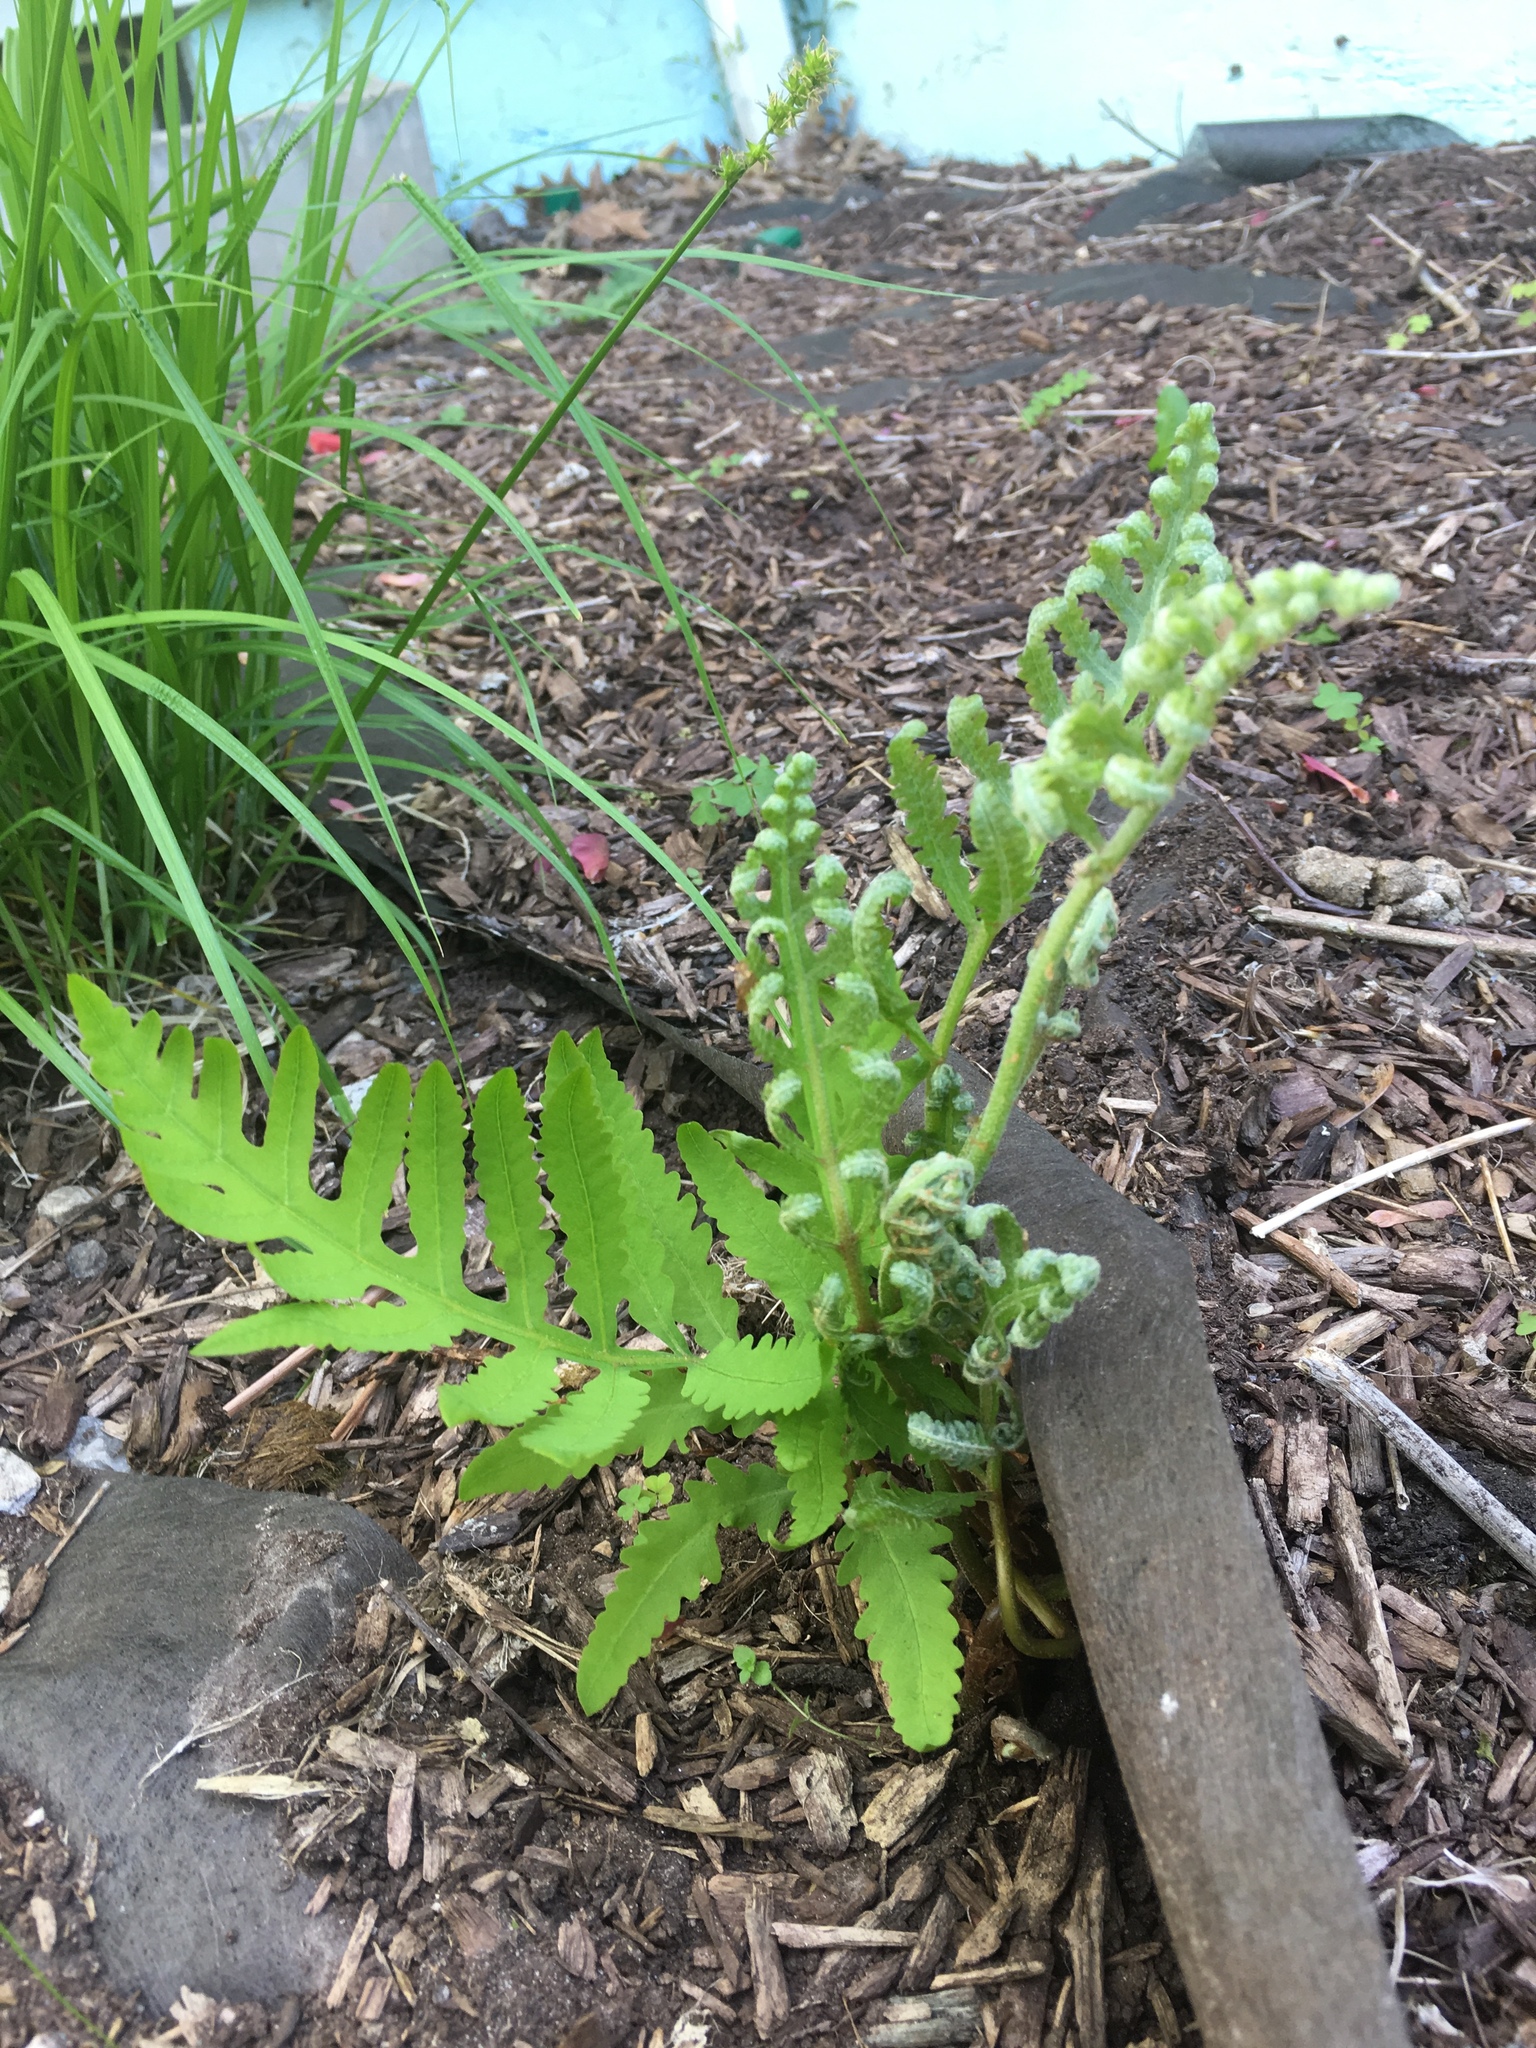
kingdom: Plantae
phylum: Tracheophyta
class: Polypodiopsida
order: Polypodiales
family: Onocleaceae
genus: Onoclea
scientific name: Onoclea sensibilis
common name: Sensitive fern
